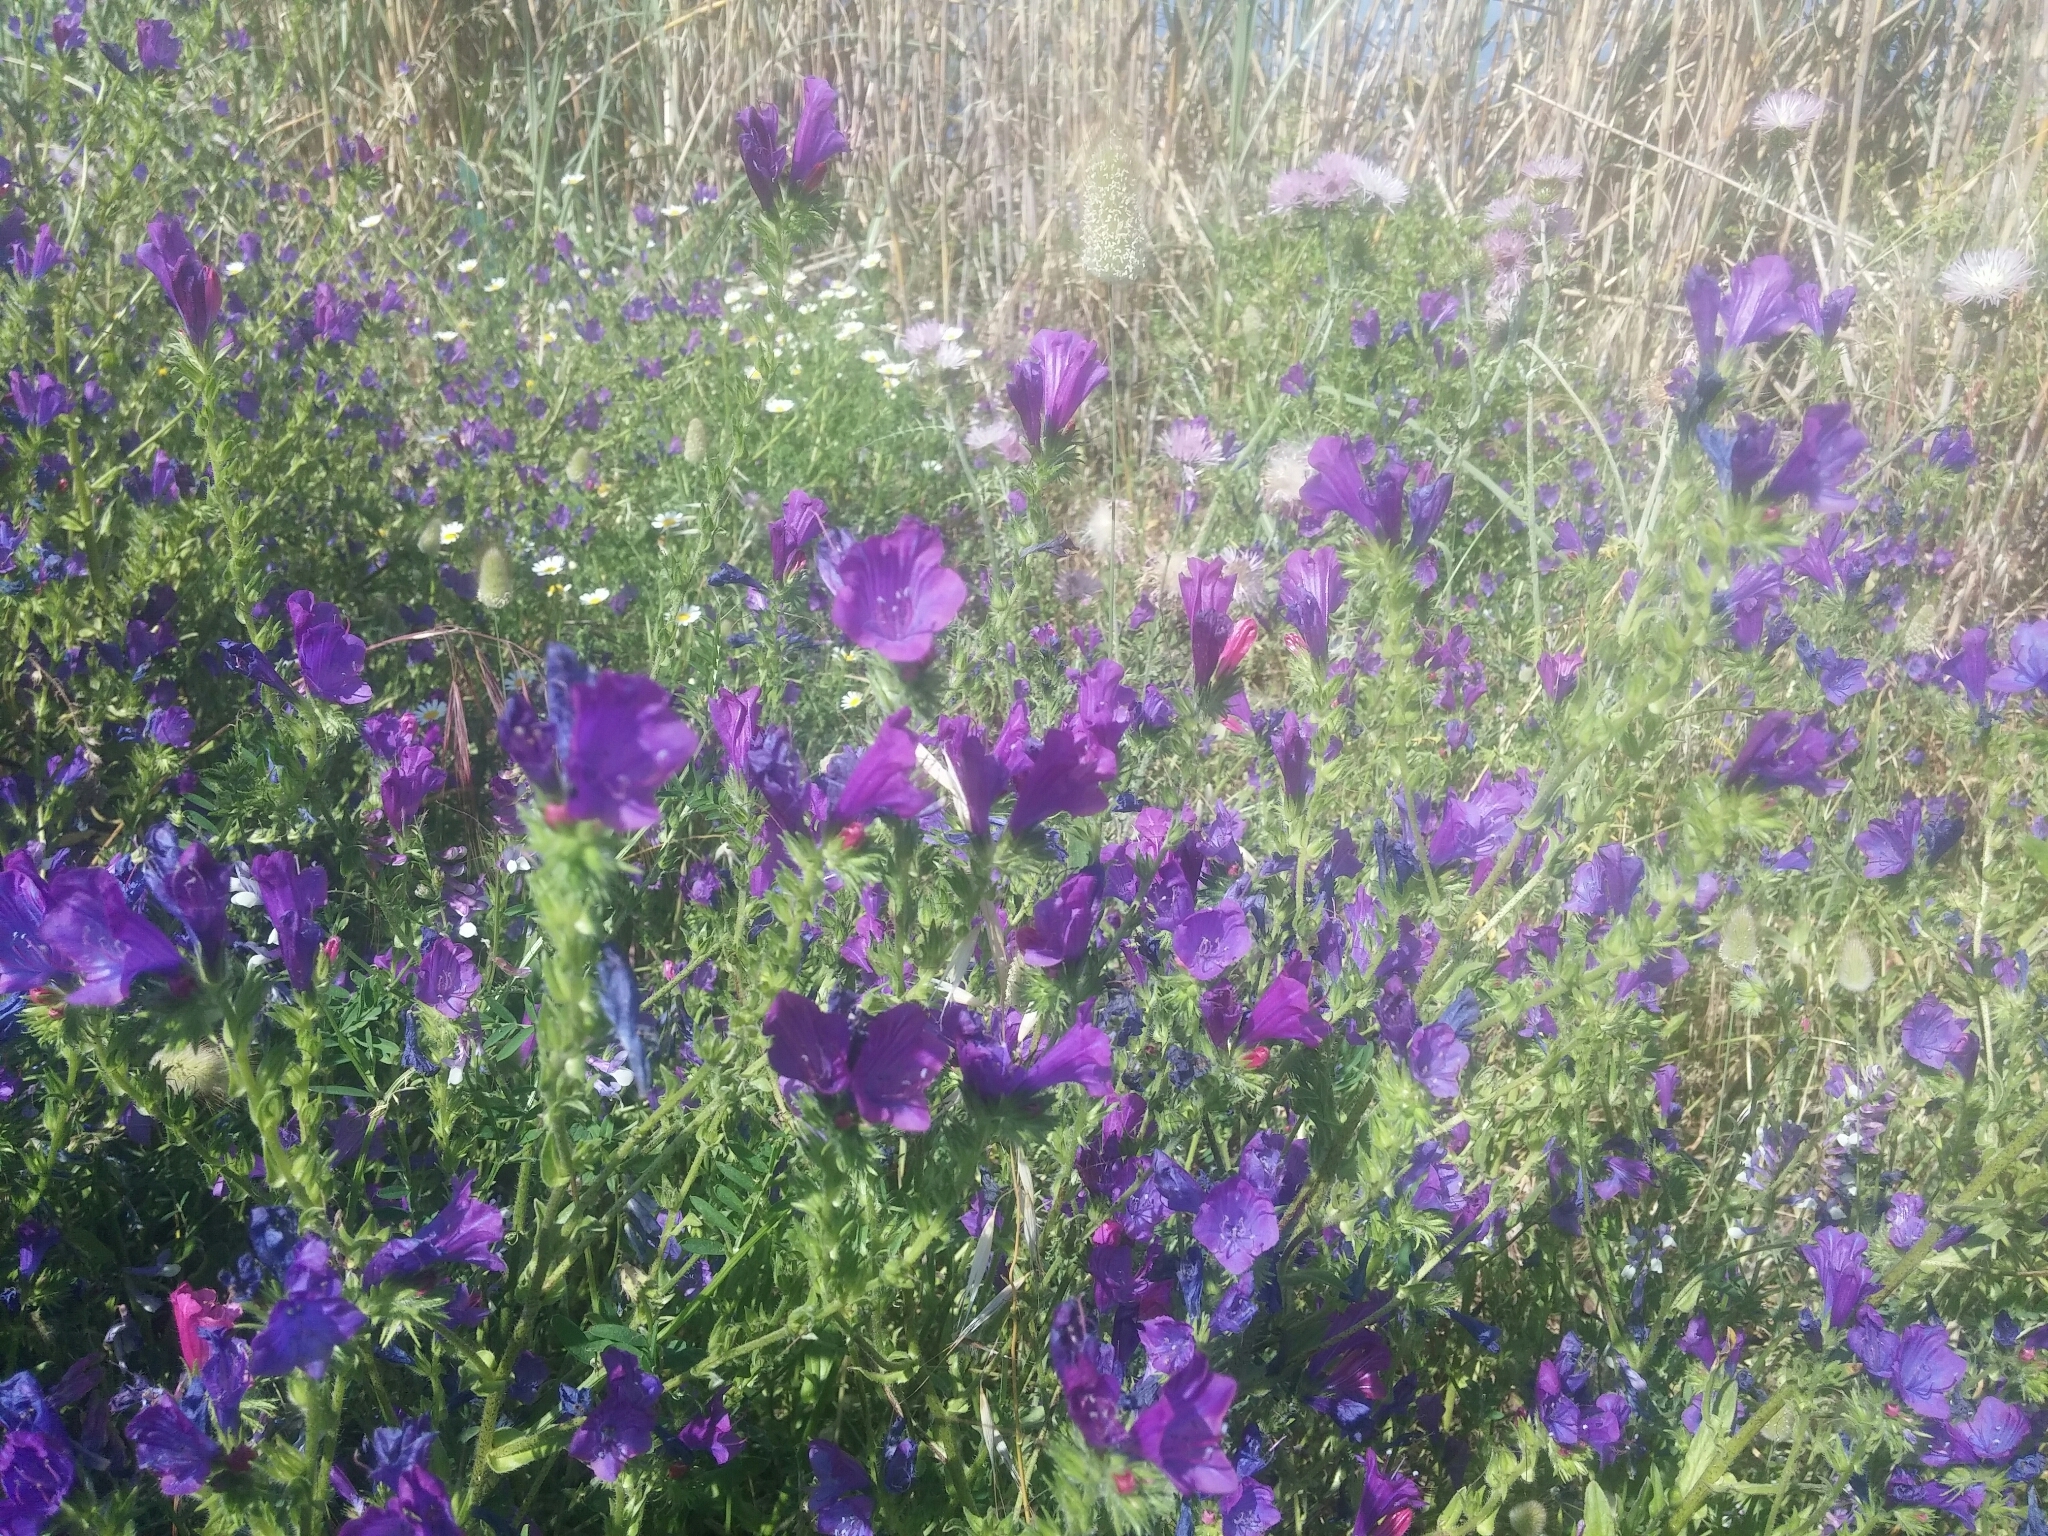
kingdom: Plantae
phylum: Tracheophyta
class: Magnoliopsida
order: Boraginales
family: Boraginaceae
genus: Echium
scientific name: Echium plantagineum
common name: Purple viper's-bugloss
